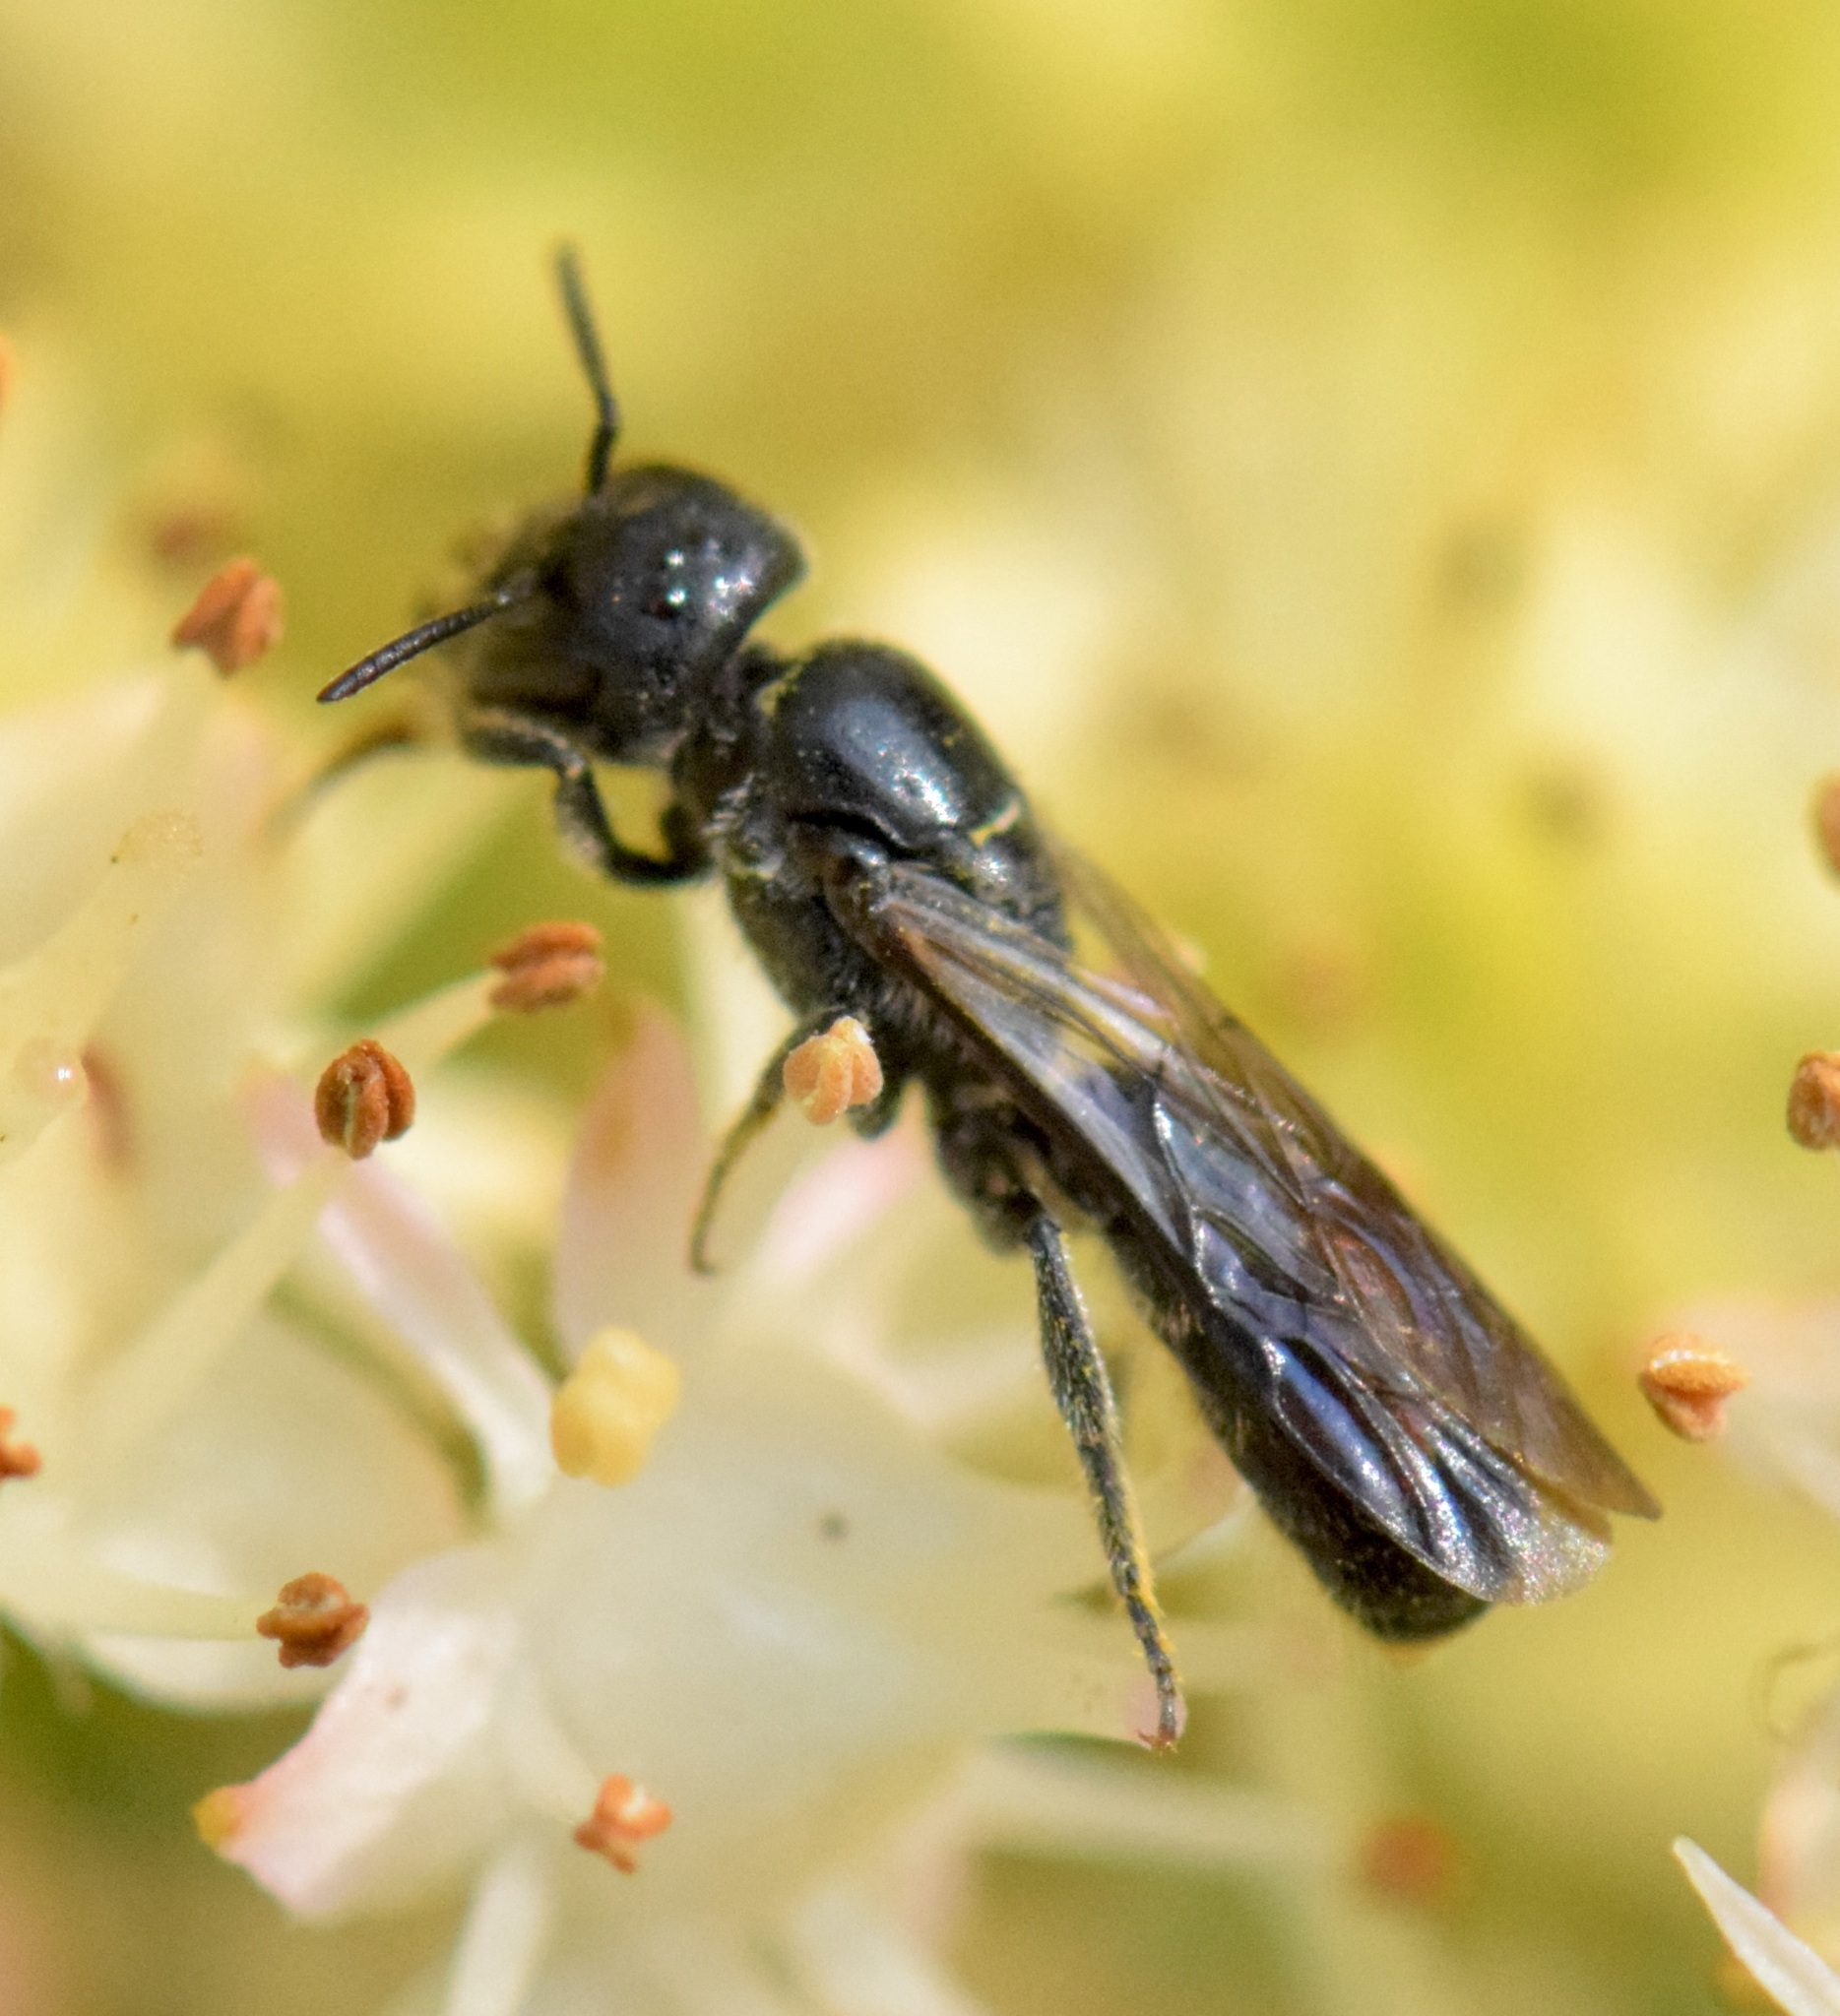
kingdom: Animalia
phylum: Arthropoda
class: Insecta
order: Hymenoptera
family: Megachilidae
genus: Chelostoma
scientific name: Chelostoma philadelphi
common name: Mock-orange scissor bee
